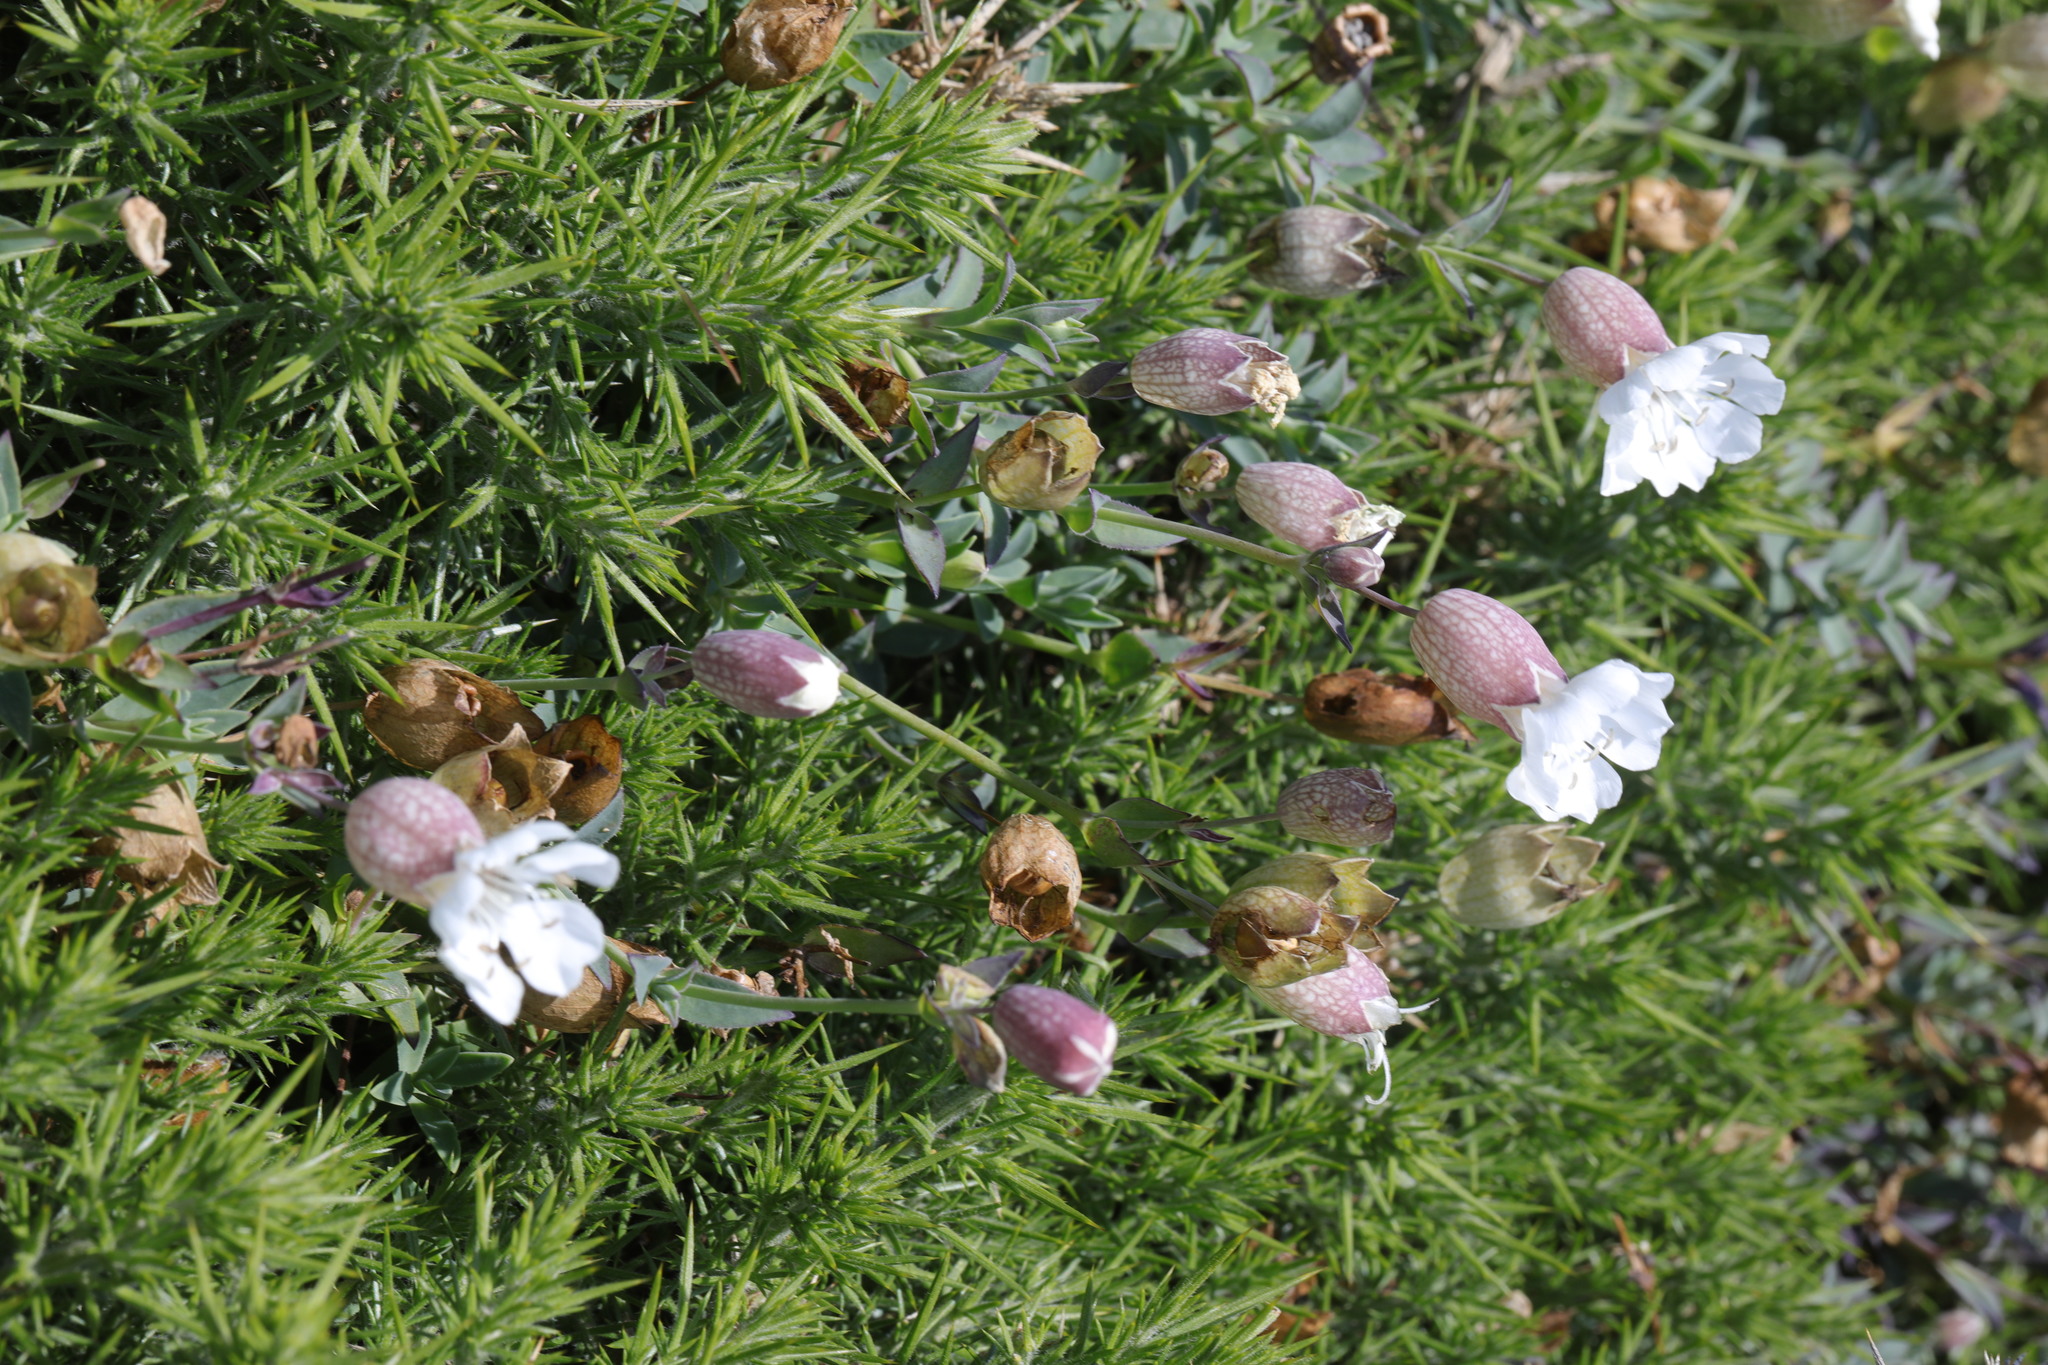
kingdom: Plantae
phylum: Tracheophyta
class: Magnoliopsida
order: Caryophyllales
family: Caryophyllaceae
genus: Silene
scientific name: Silene uniflora
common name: Sea campion
